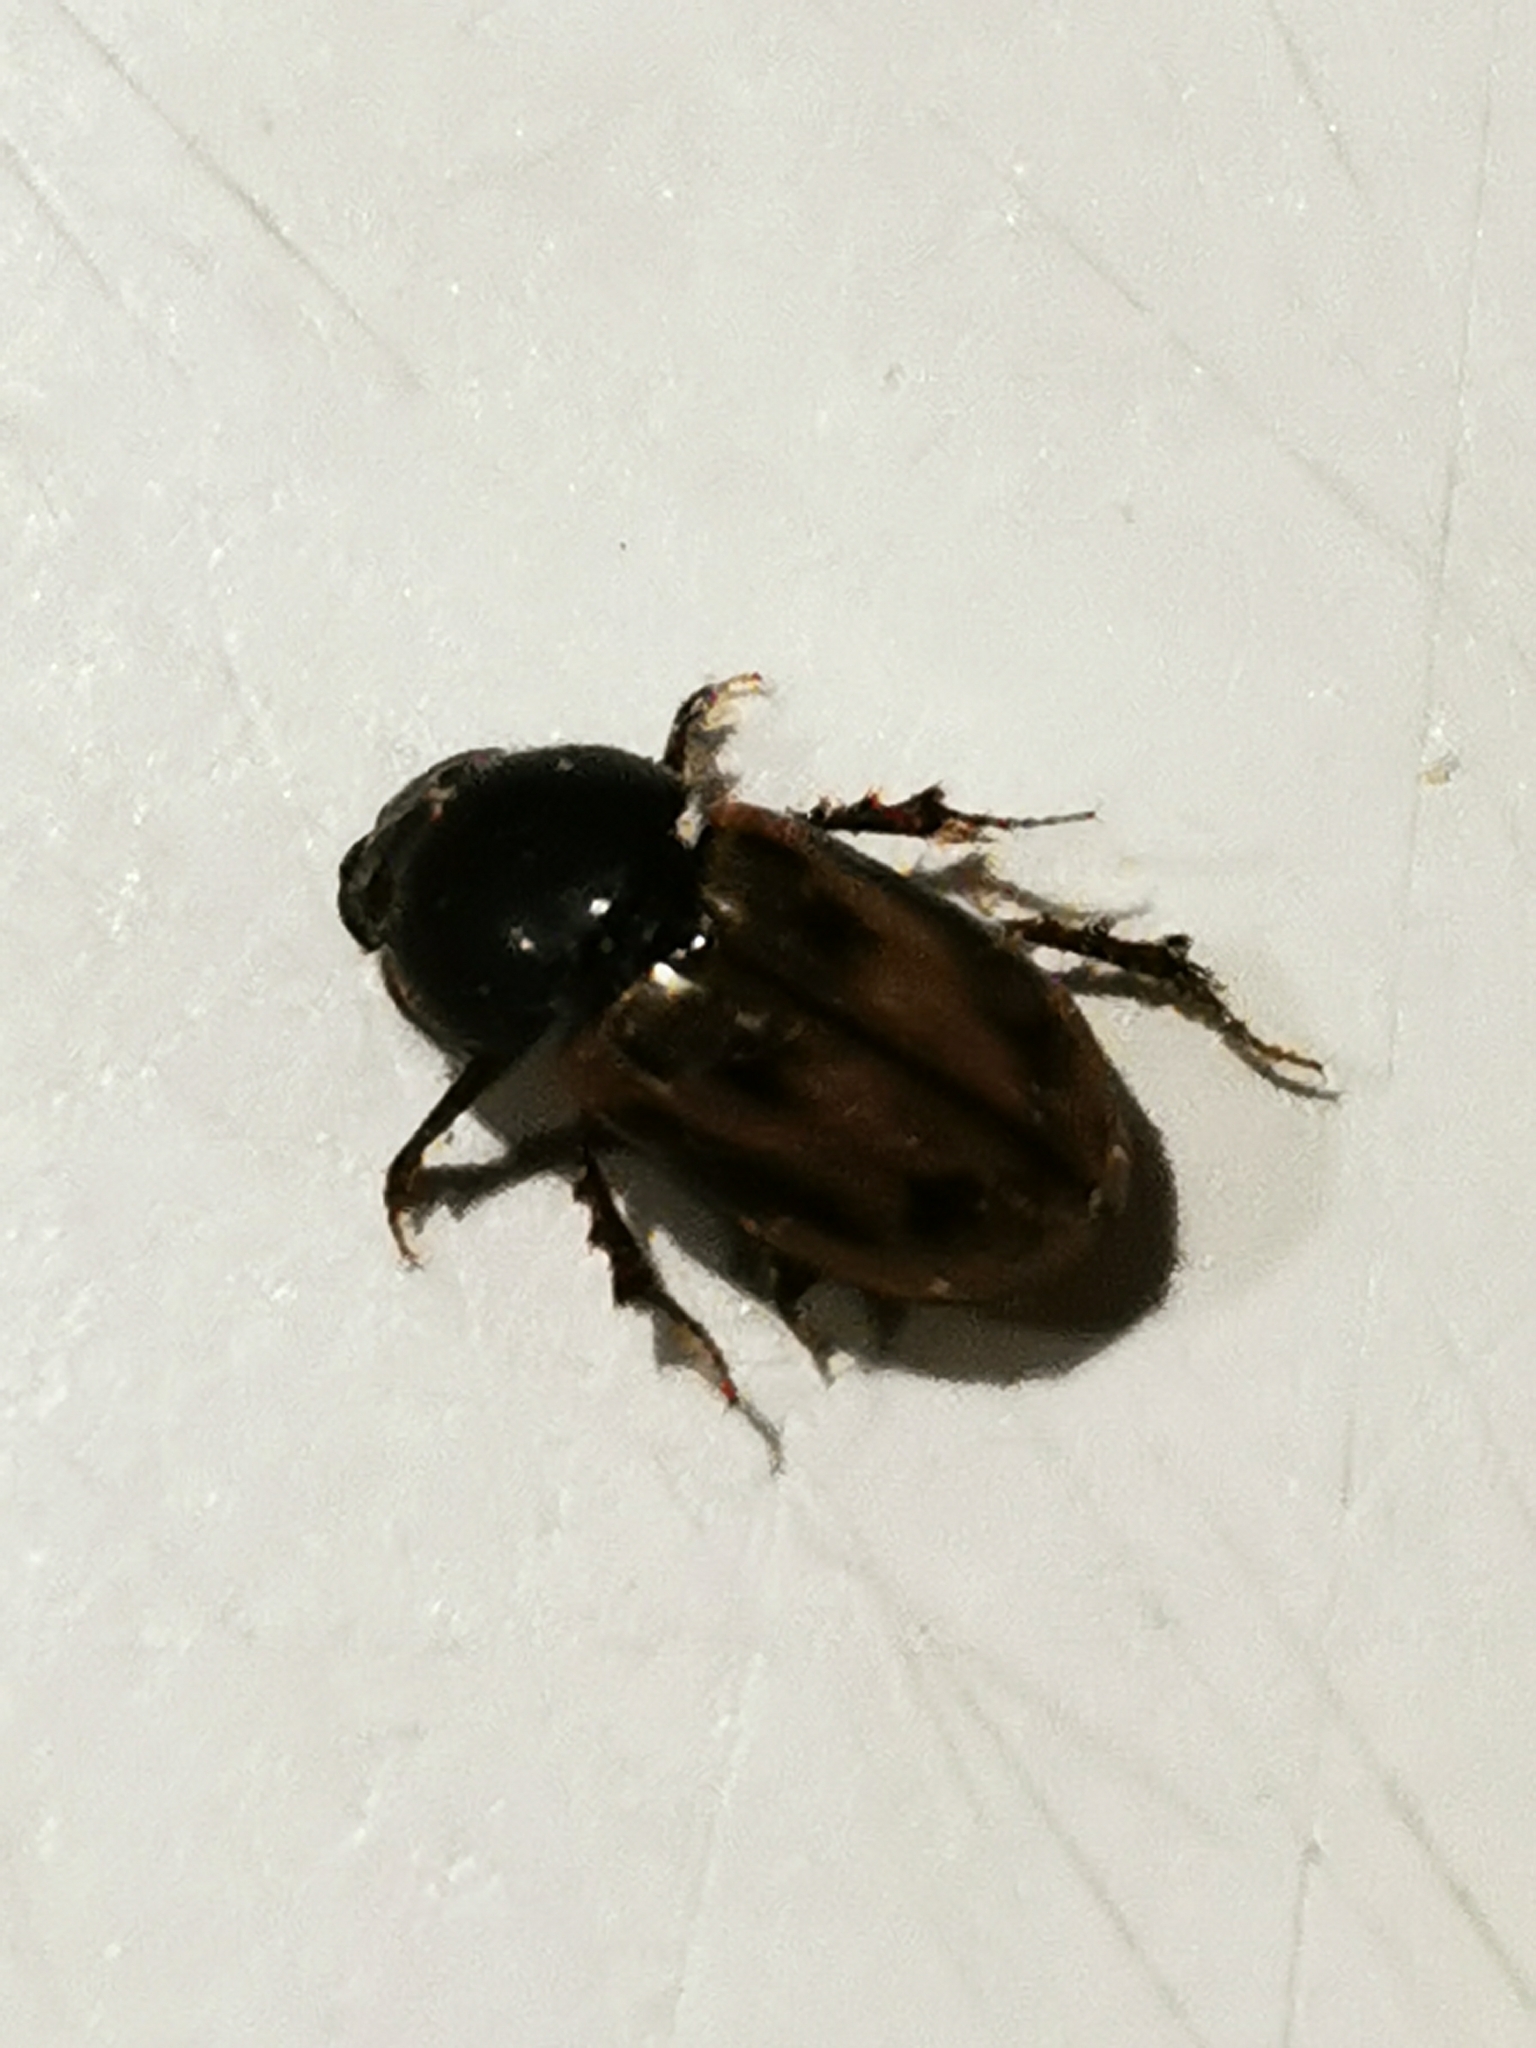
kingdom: Animalia
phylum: Arthropoda
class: Insecta
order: Coleoptera
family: Scarabaeidae
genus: Chilothorax
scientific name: Chilothorax distinctus
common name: Maculated dung beetle
